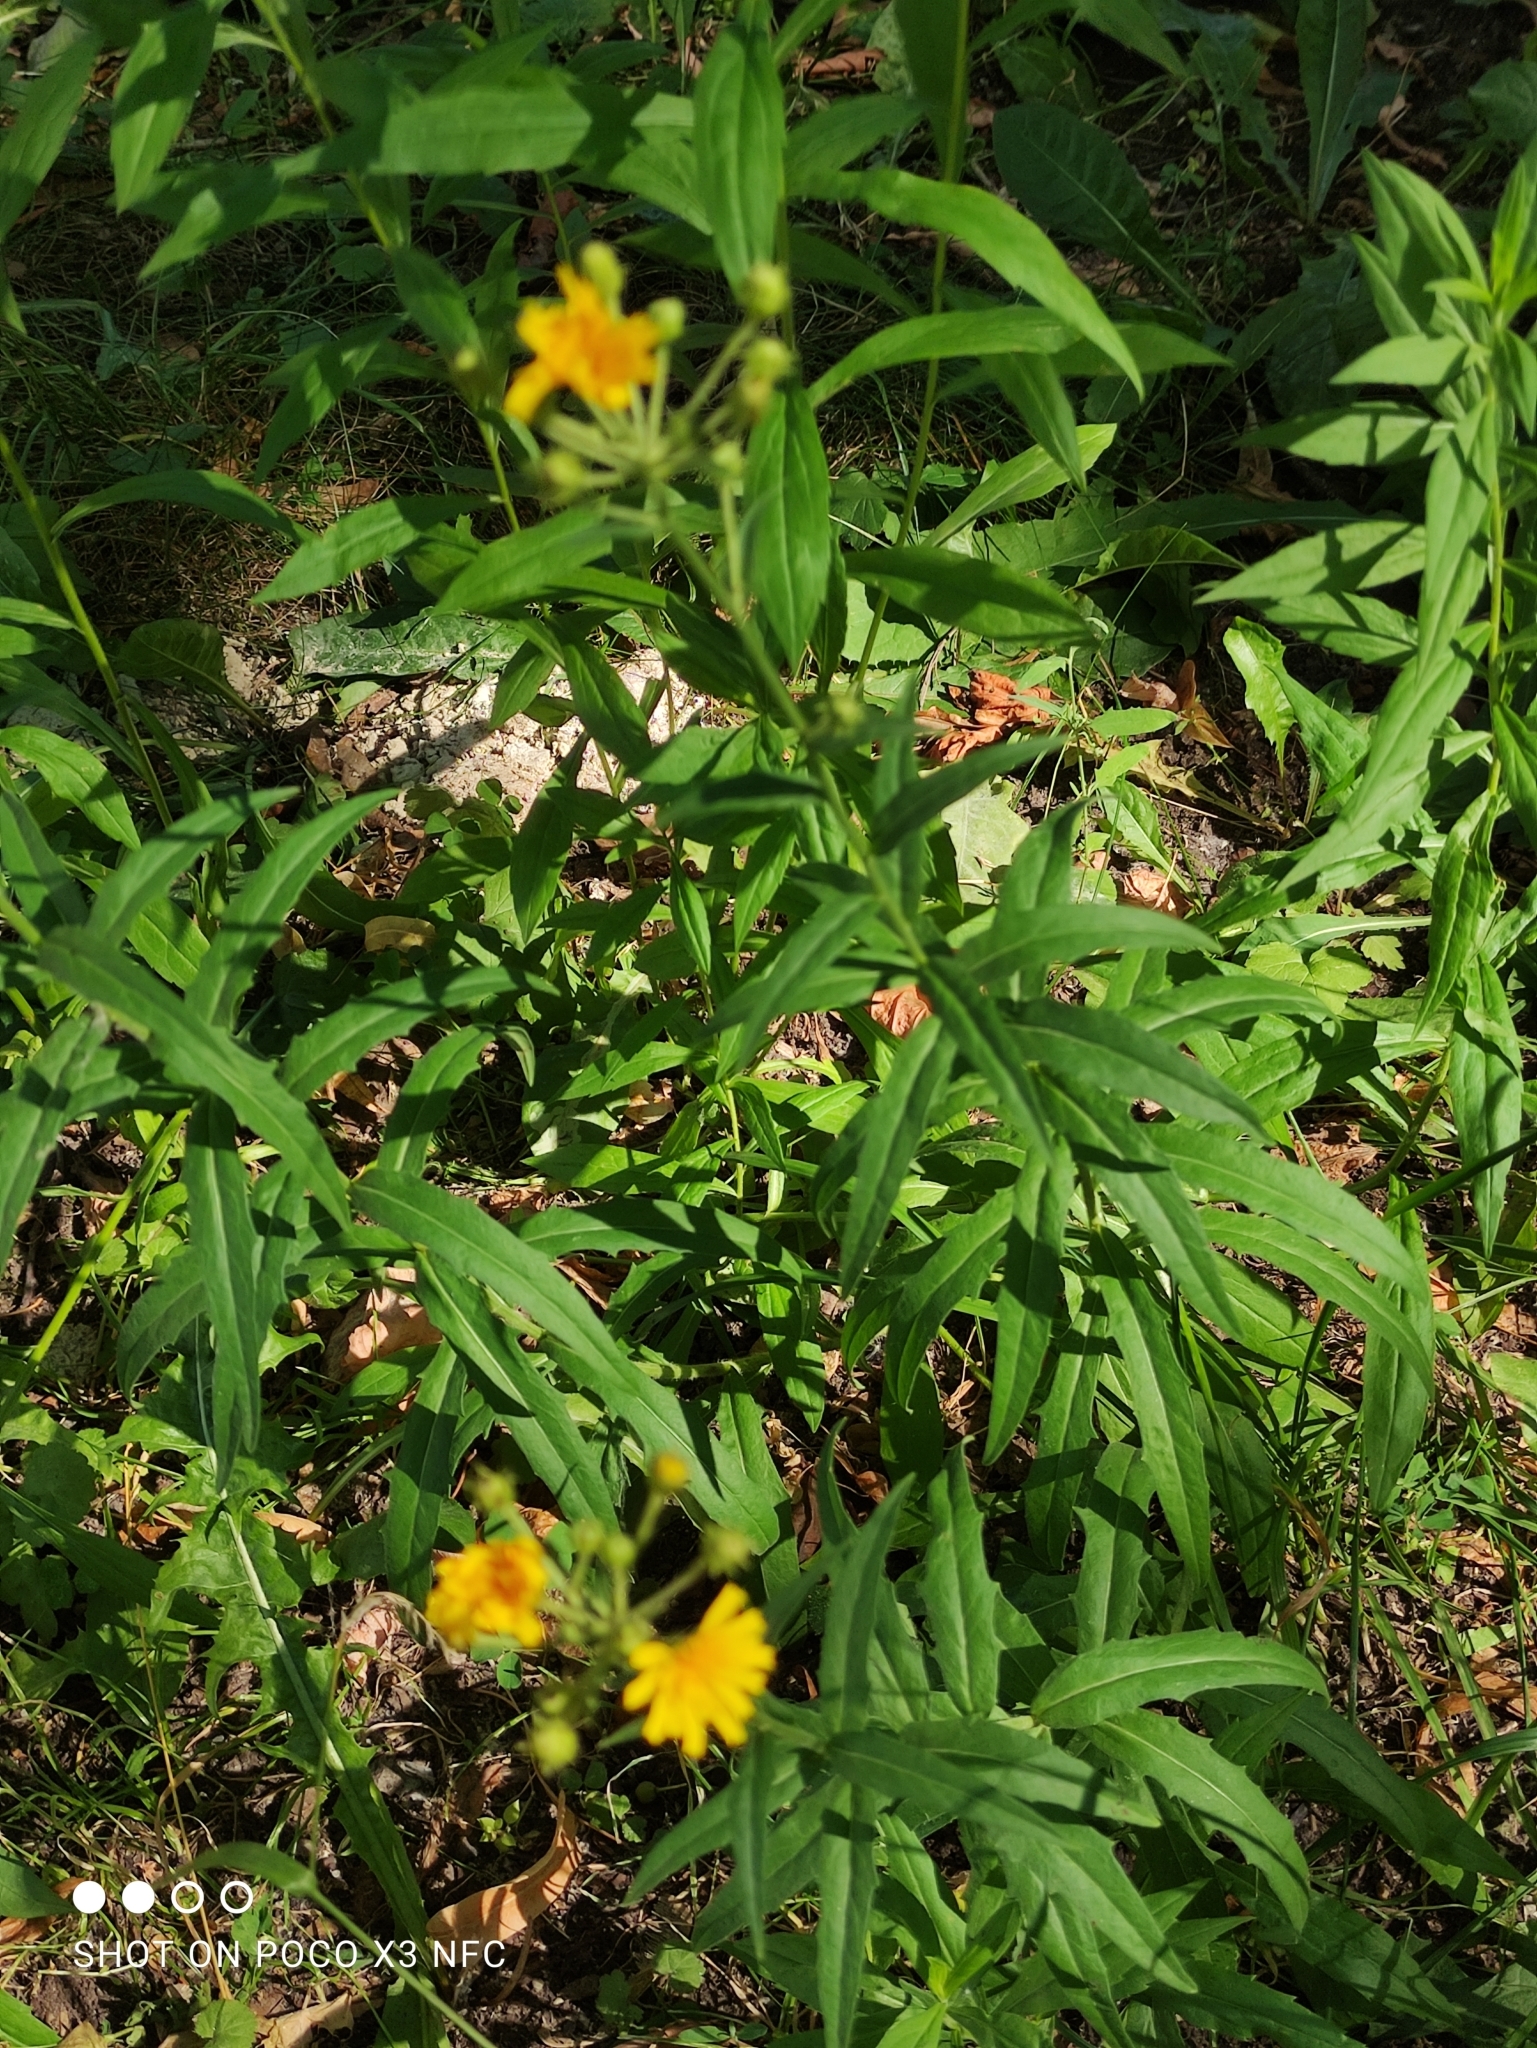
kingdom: Plantae
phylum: Tracheophyta
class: Magnoliopsida
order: Asterales
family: Asteraceae
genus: Hieracium
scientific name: Hieracium umbellatum
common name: Northern hawkweed
